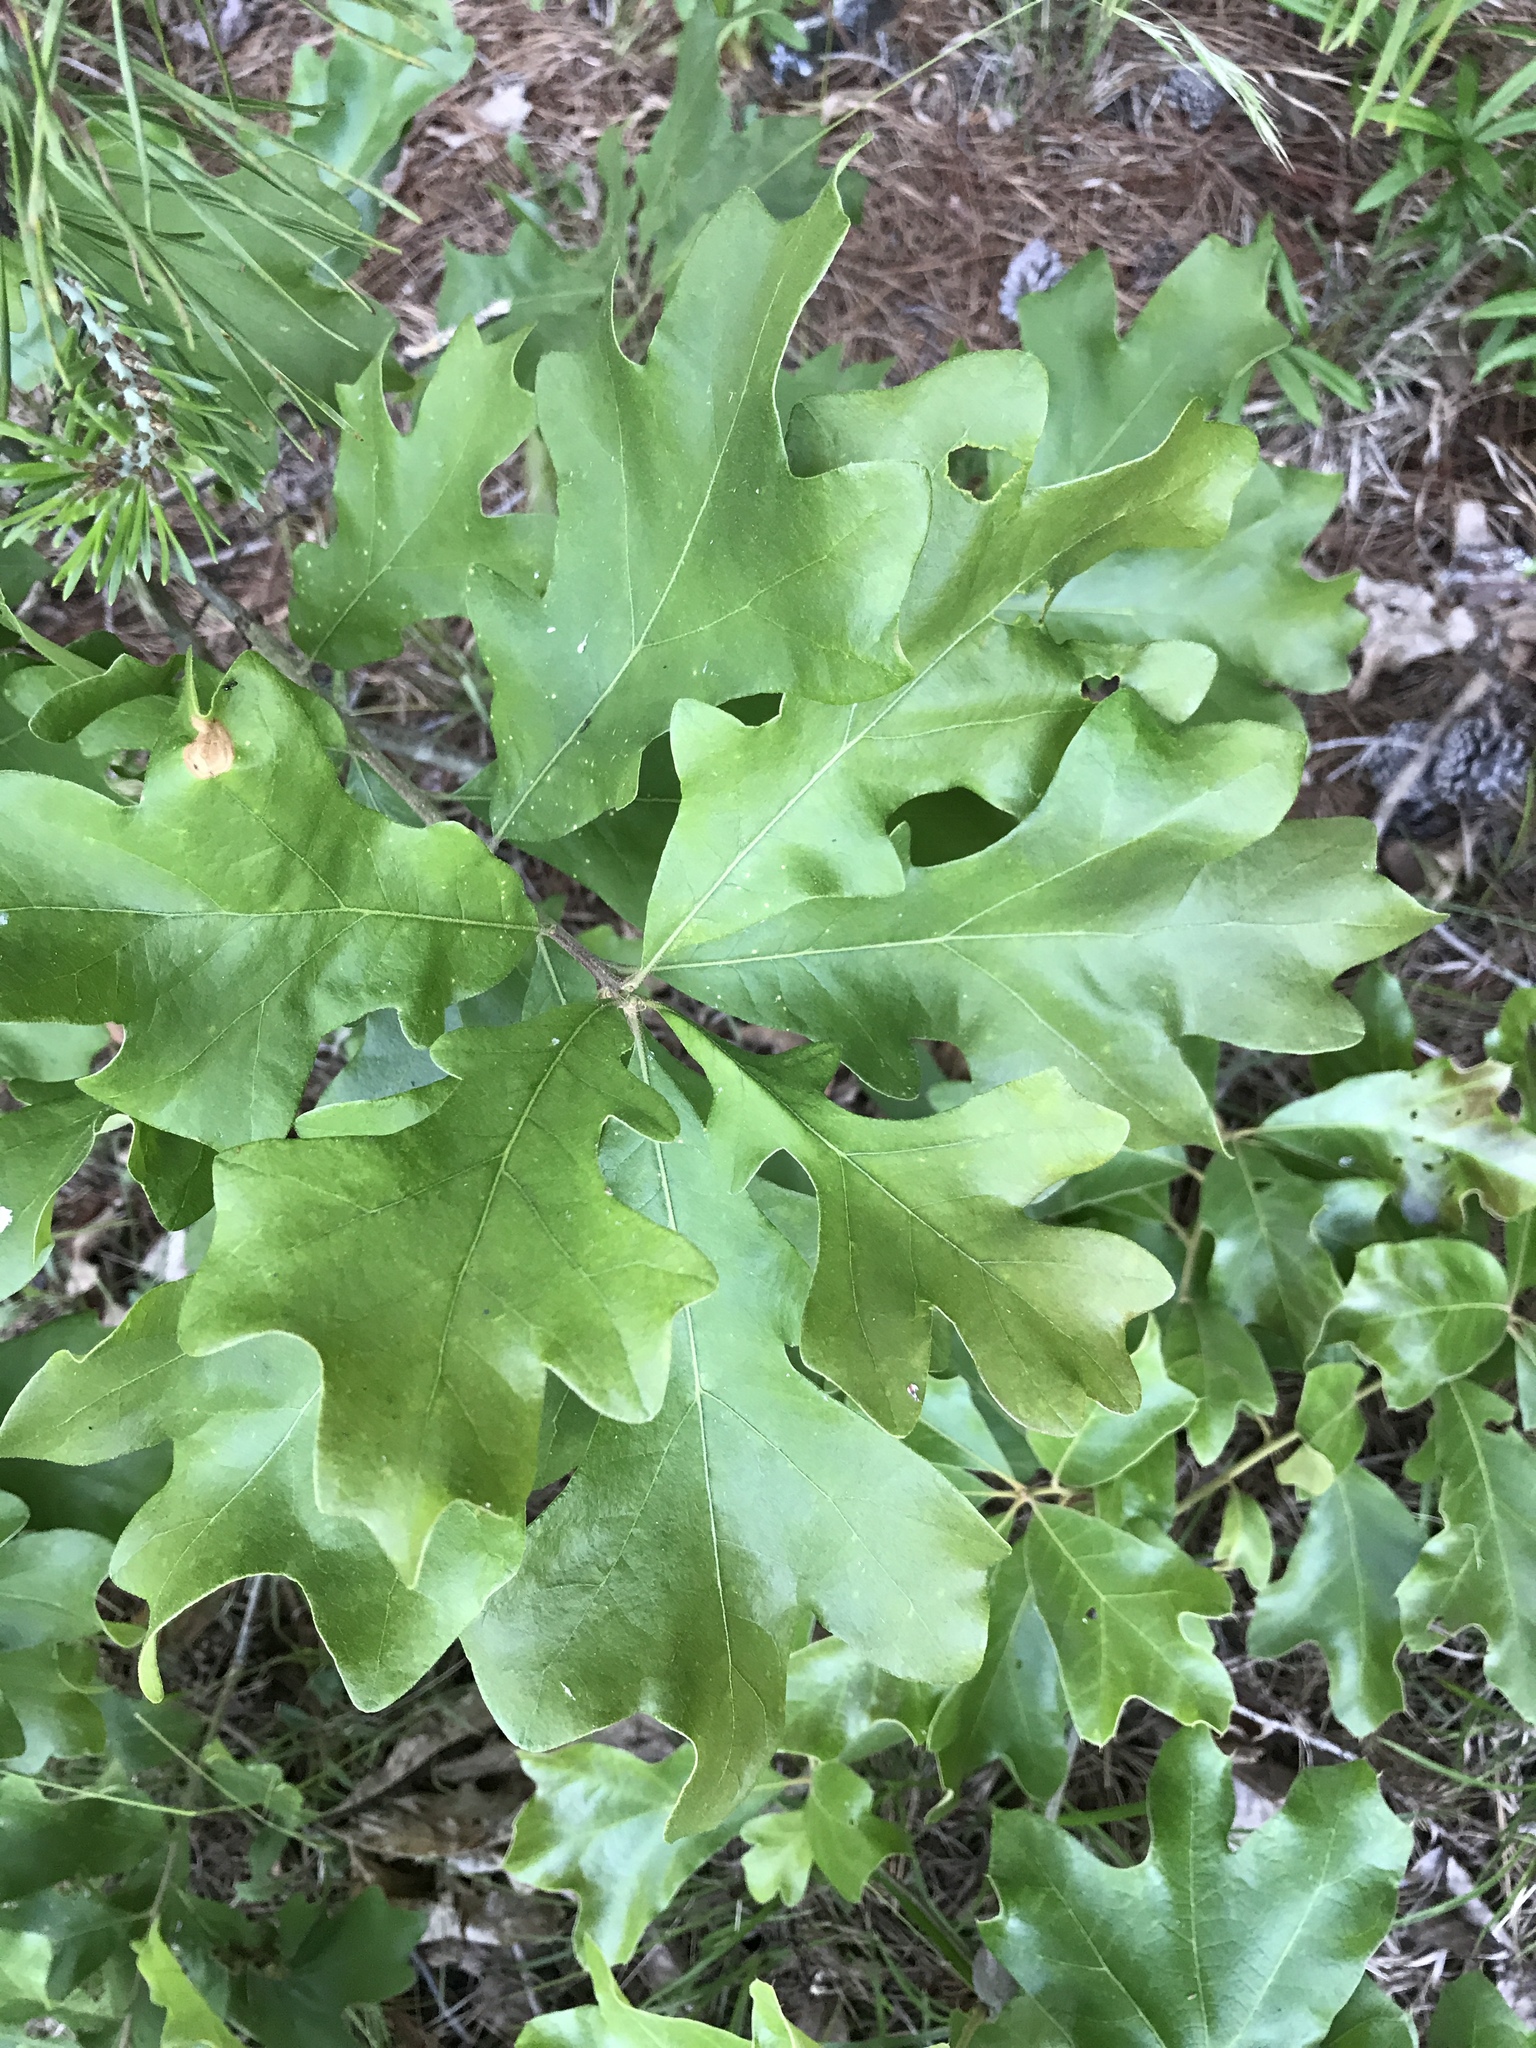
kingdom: Plantae
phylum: Tracheophyta
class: Magnoliopsida
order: Fagales
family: Fagaceae
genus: Quercus
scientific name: Quercus stellata
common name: Post oak
